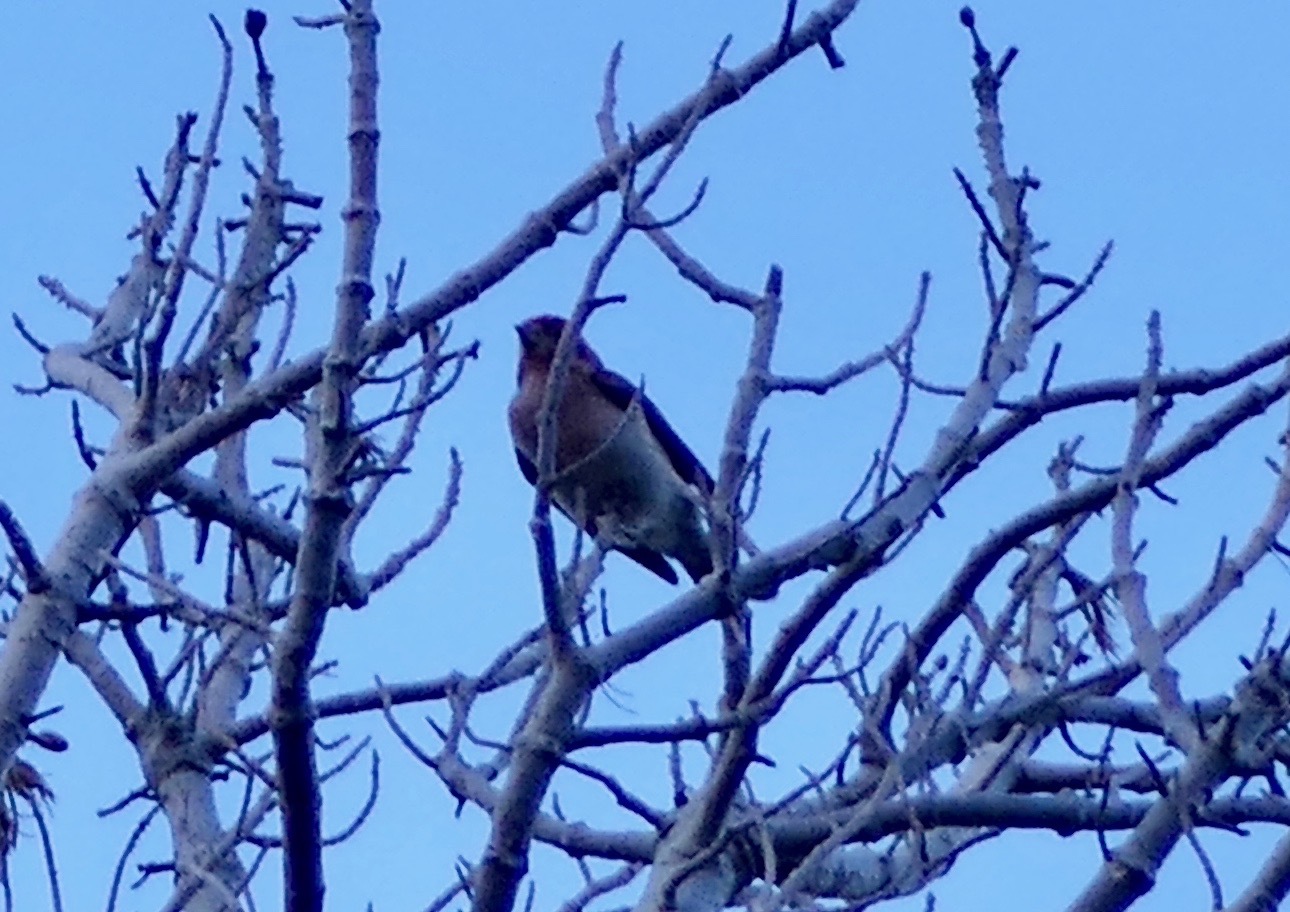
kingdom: Animalia
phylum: Chordata
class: Aves
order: Passeriformes
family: Fringillidae
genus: Haemorhous
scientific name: Haemorhous cassinii
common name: Cassin's finch
